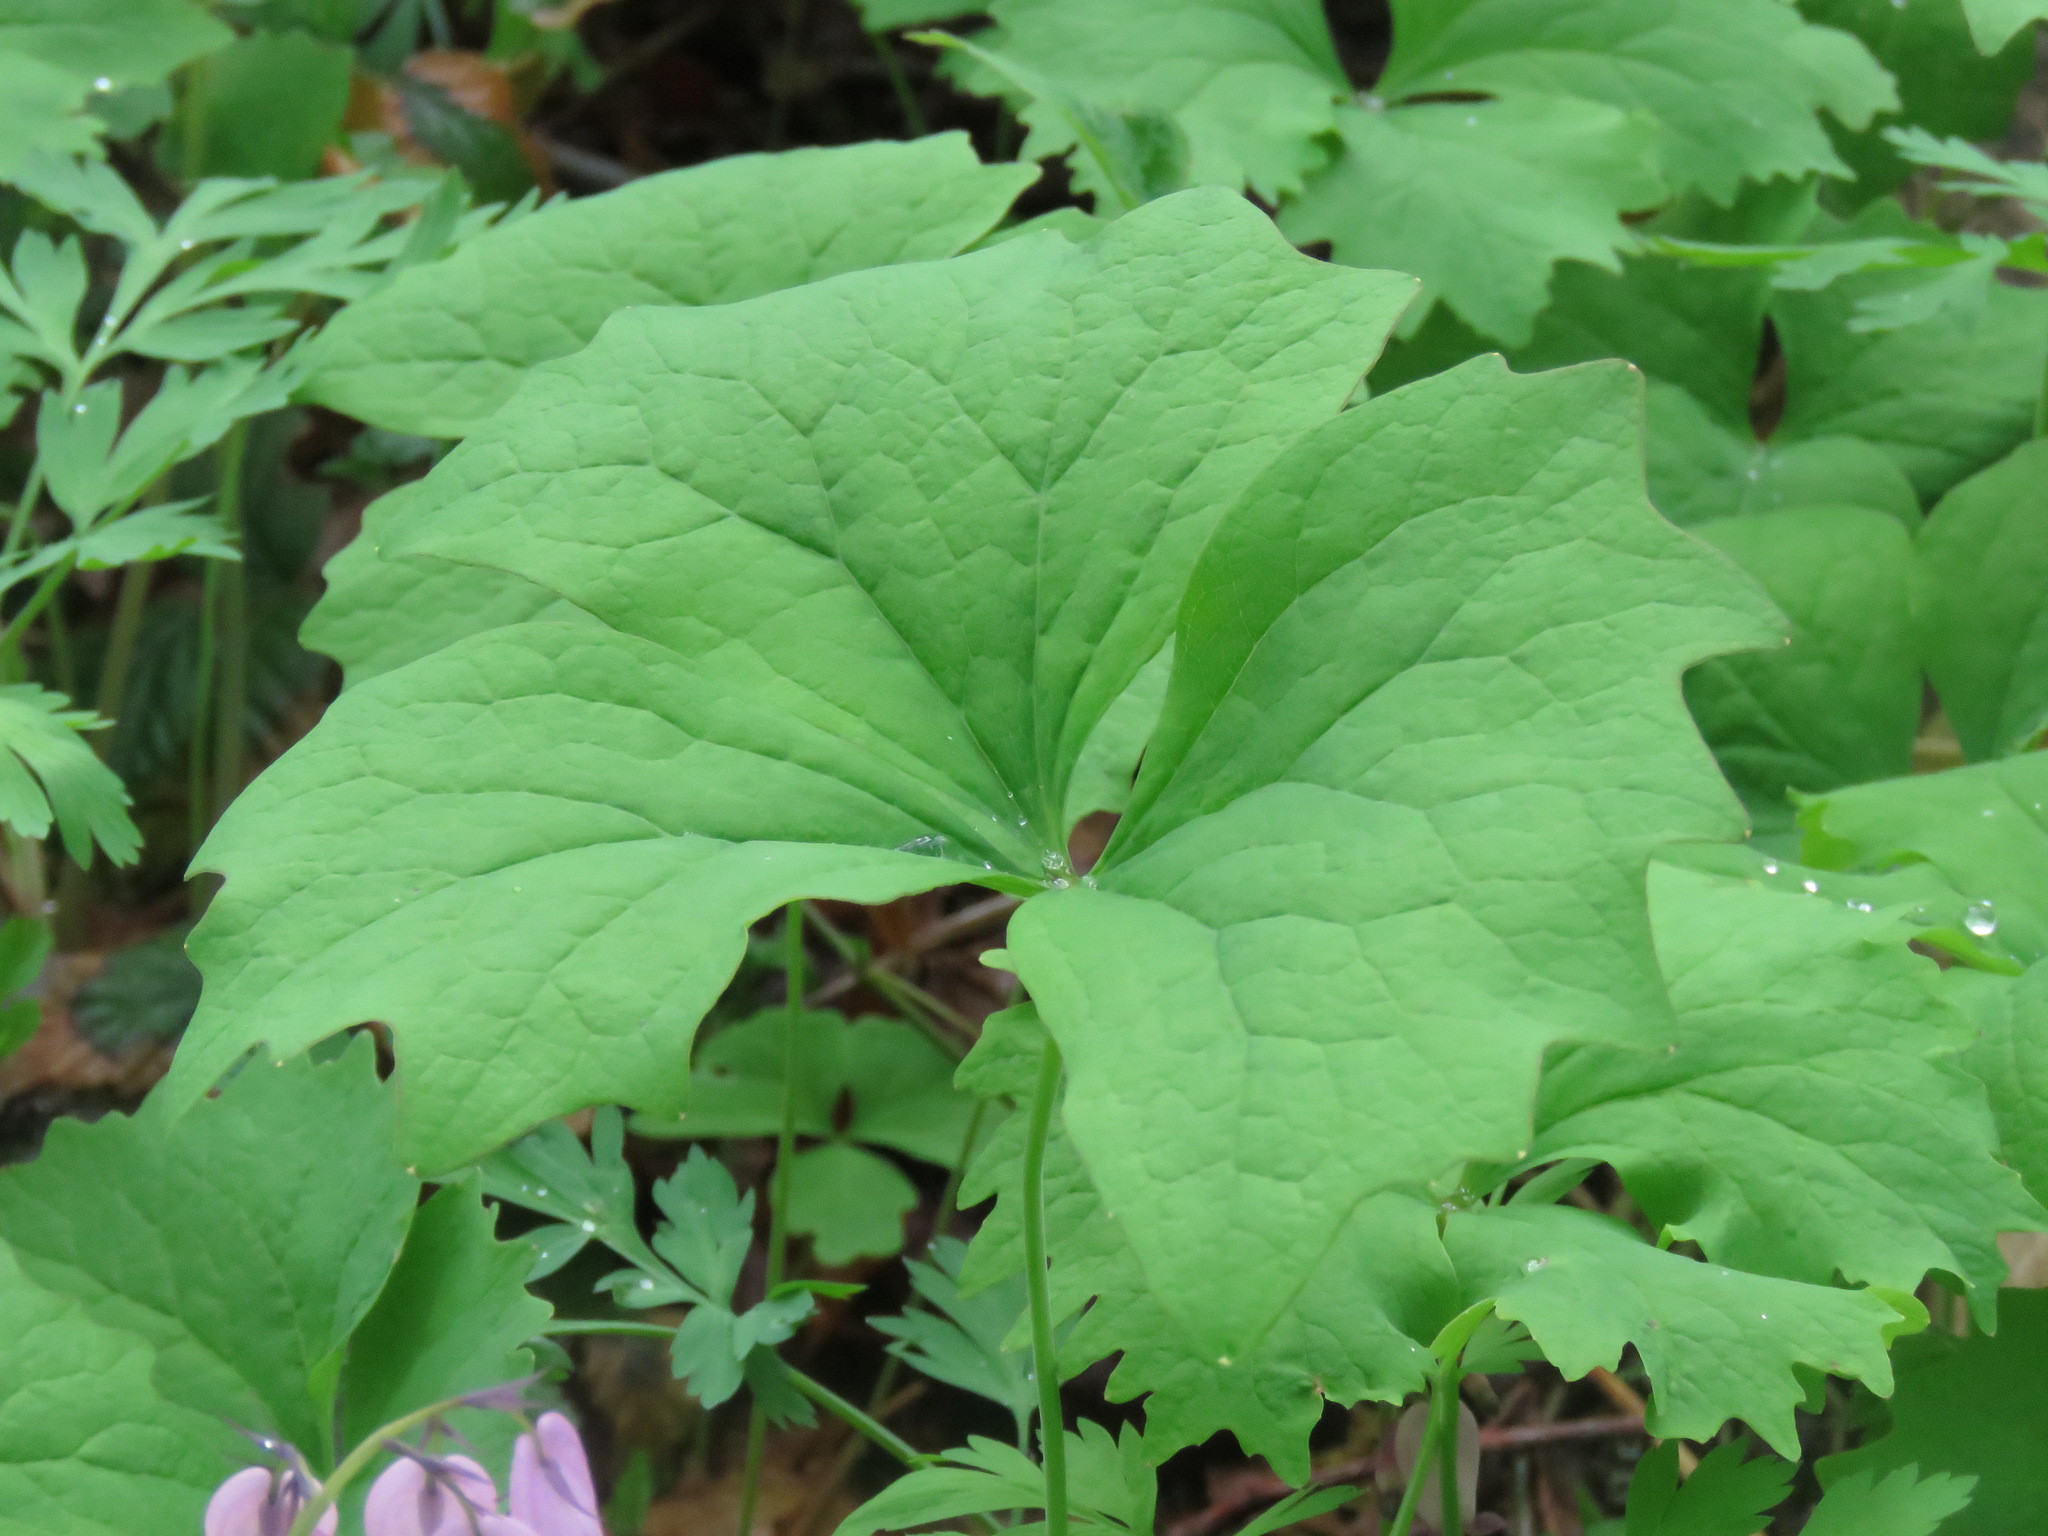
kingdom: Plantae
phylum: Tracheophyta
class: Magnoliopsida
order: Ranunculales
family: Berberidaceae
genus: Achlys
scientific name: Achlys triphylla
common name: Vanilla-leaf
